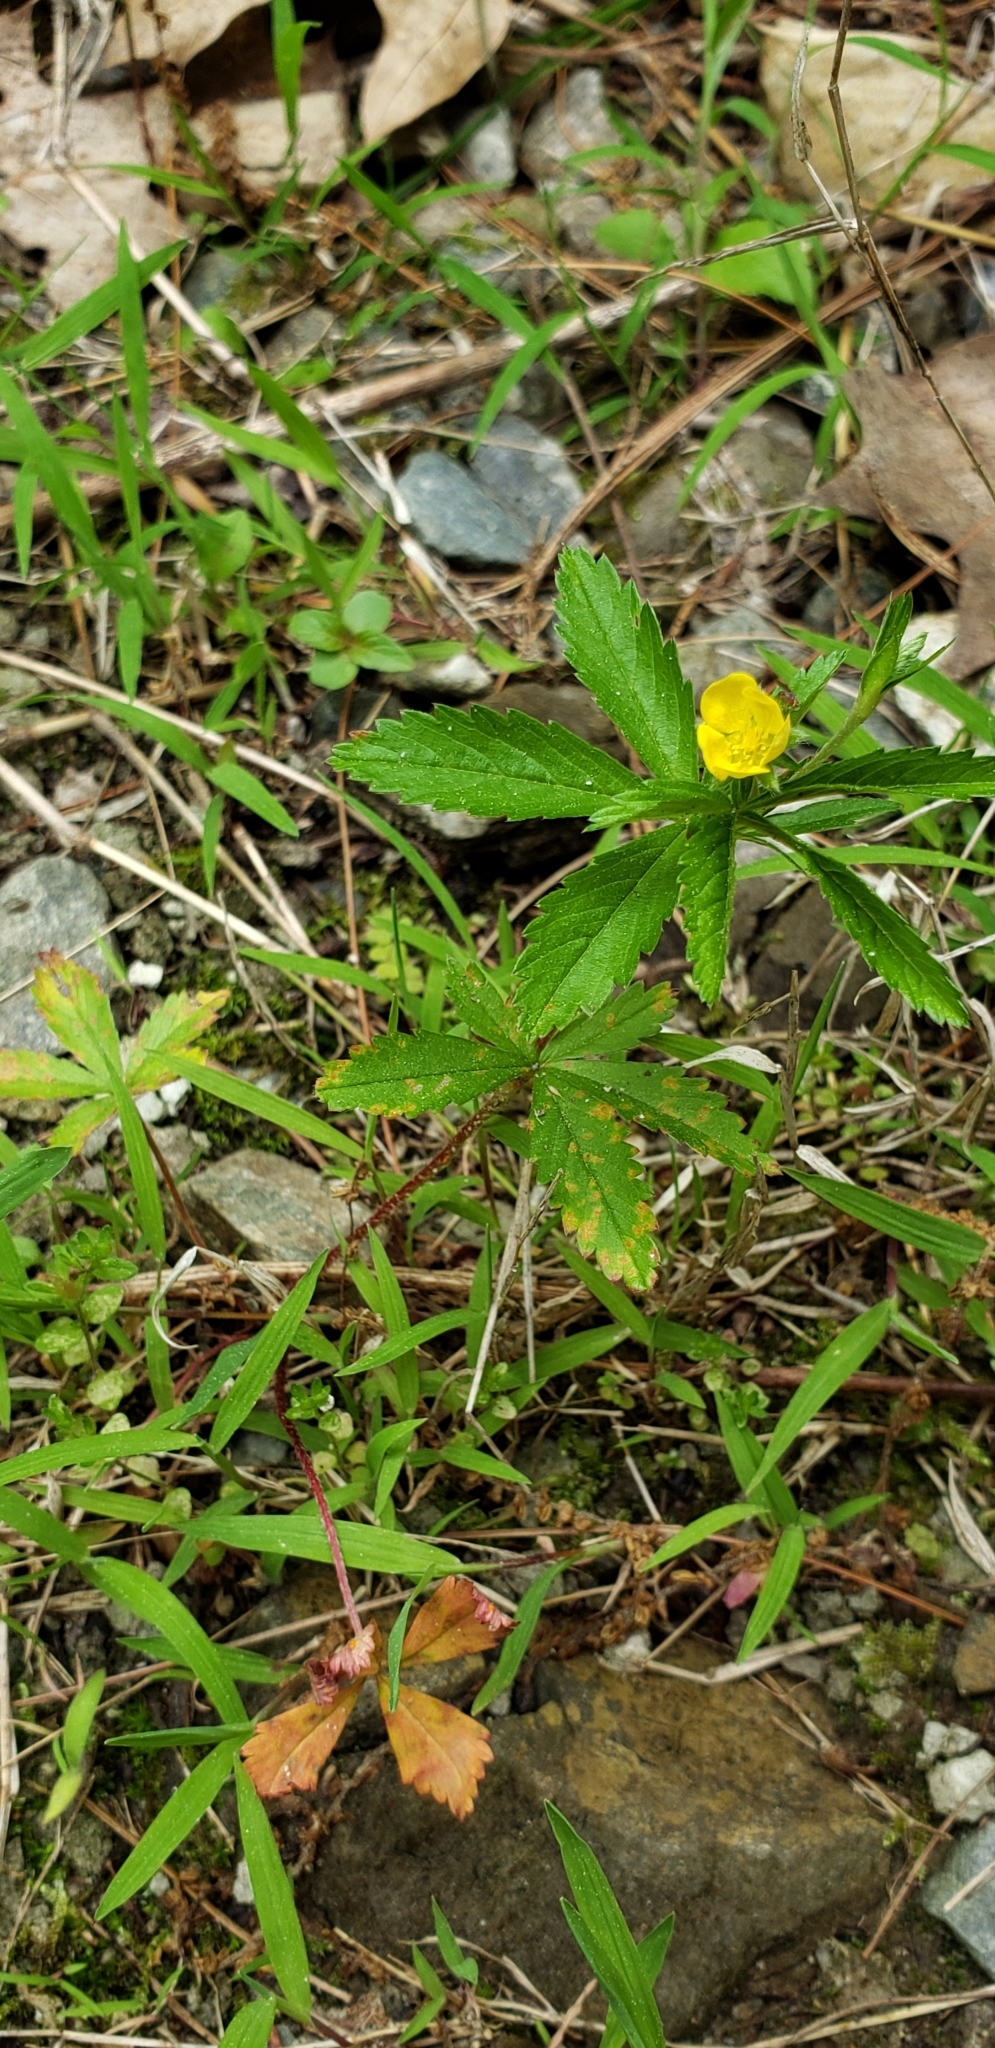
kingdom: Plantae
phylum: Tracheophyta
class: Magnoliopsida
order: Rosales
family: Rosaceae
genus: Potentilla
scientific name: Potentilla simplex
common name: Old field cinquefoil
